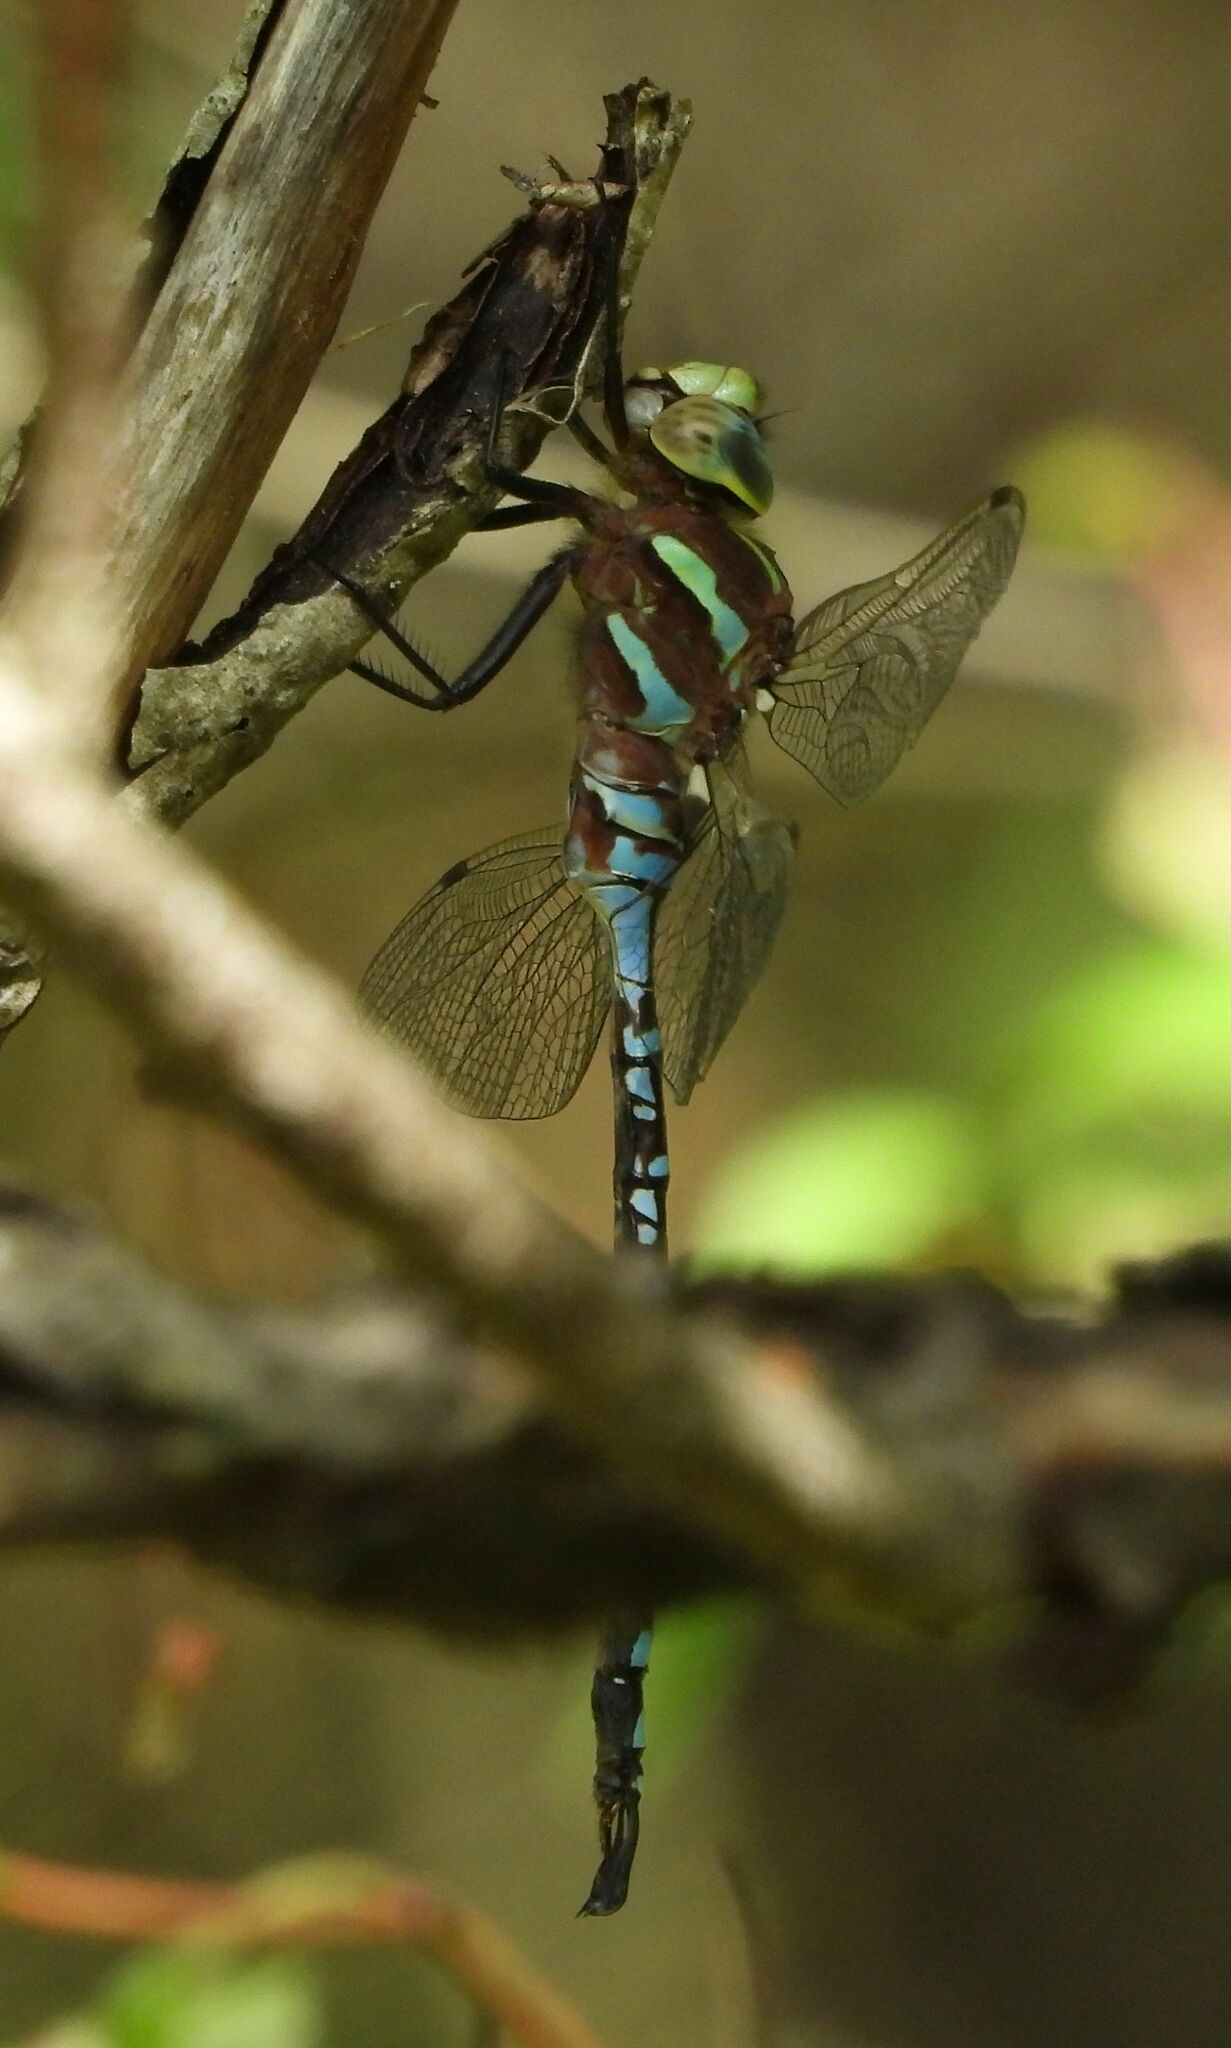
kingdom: Animalia
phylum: Arthropoda
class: Insecta
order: Odonata
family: Aeshnidae
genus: Aeshna
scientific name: Aeshna constricta
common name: Lance-tipped darner
